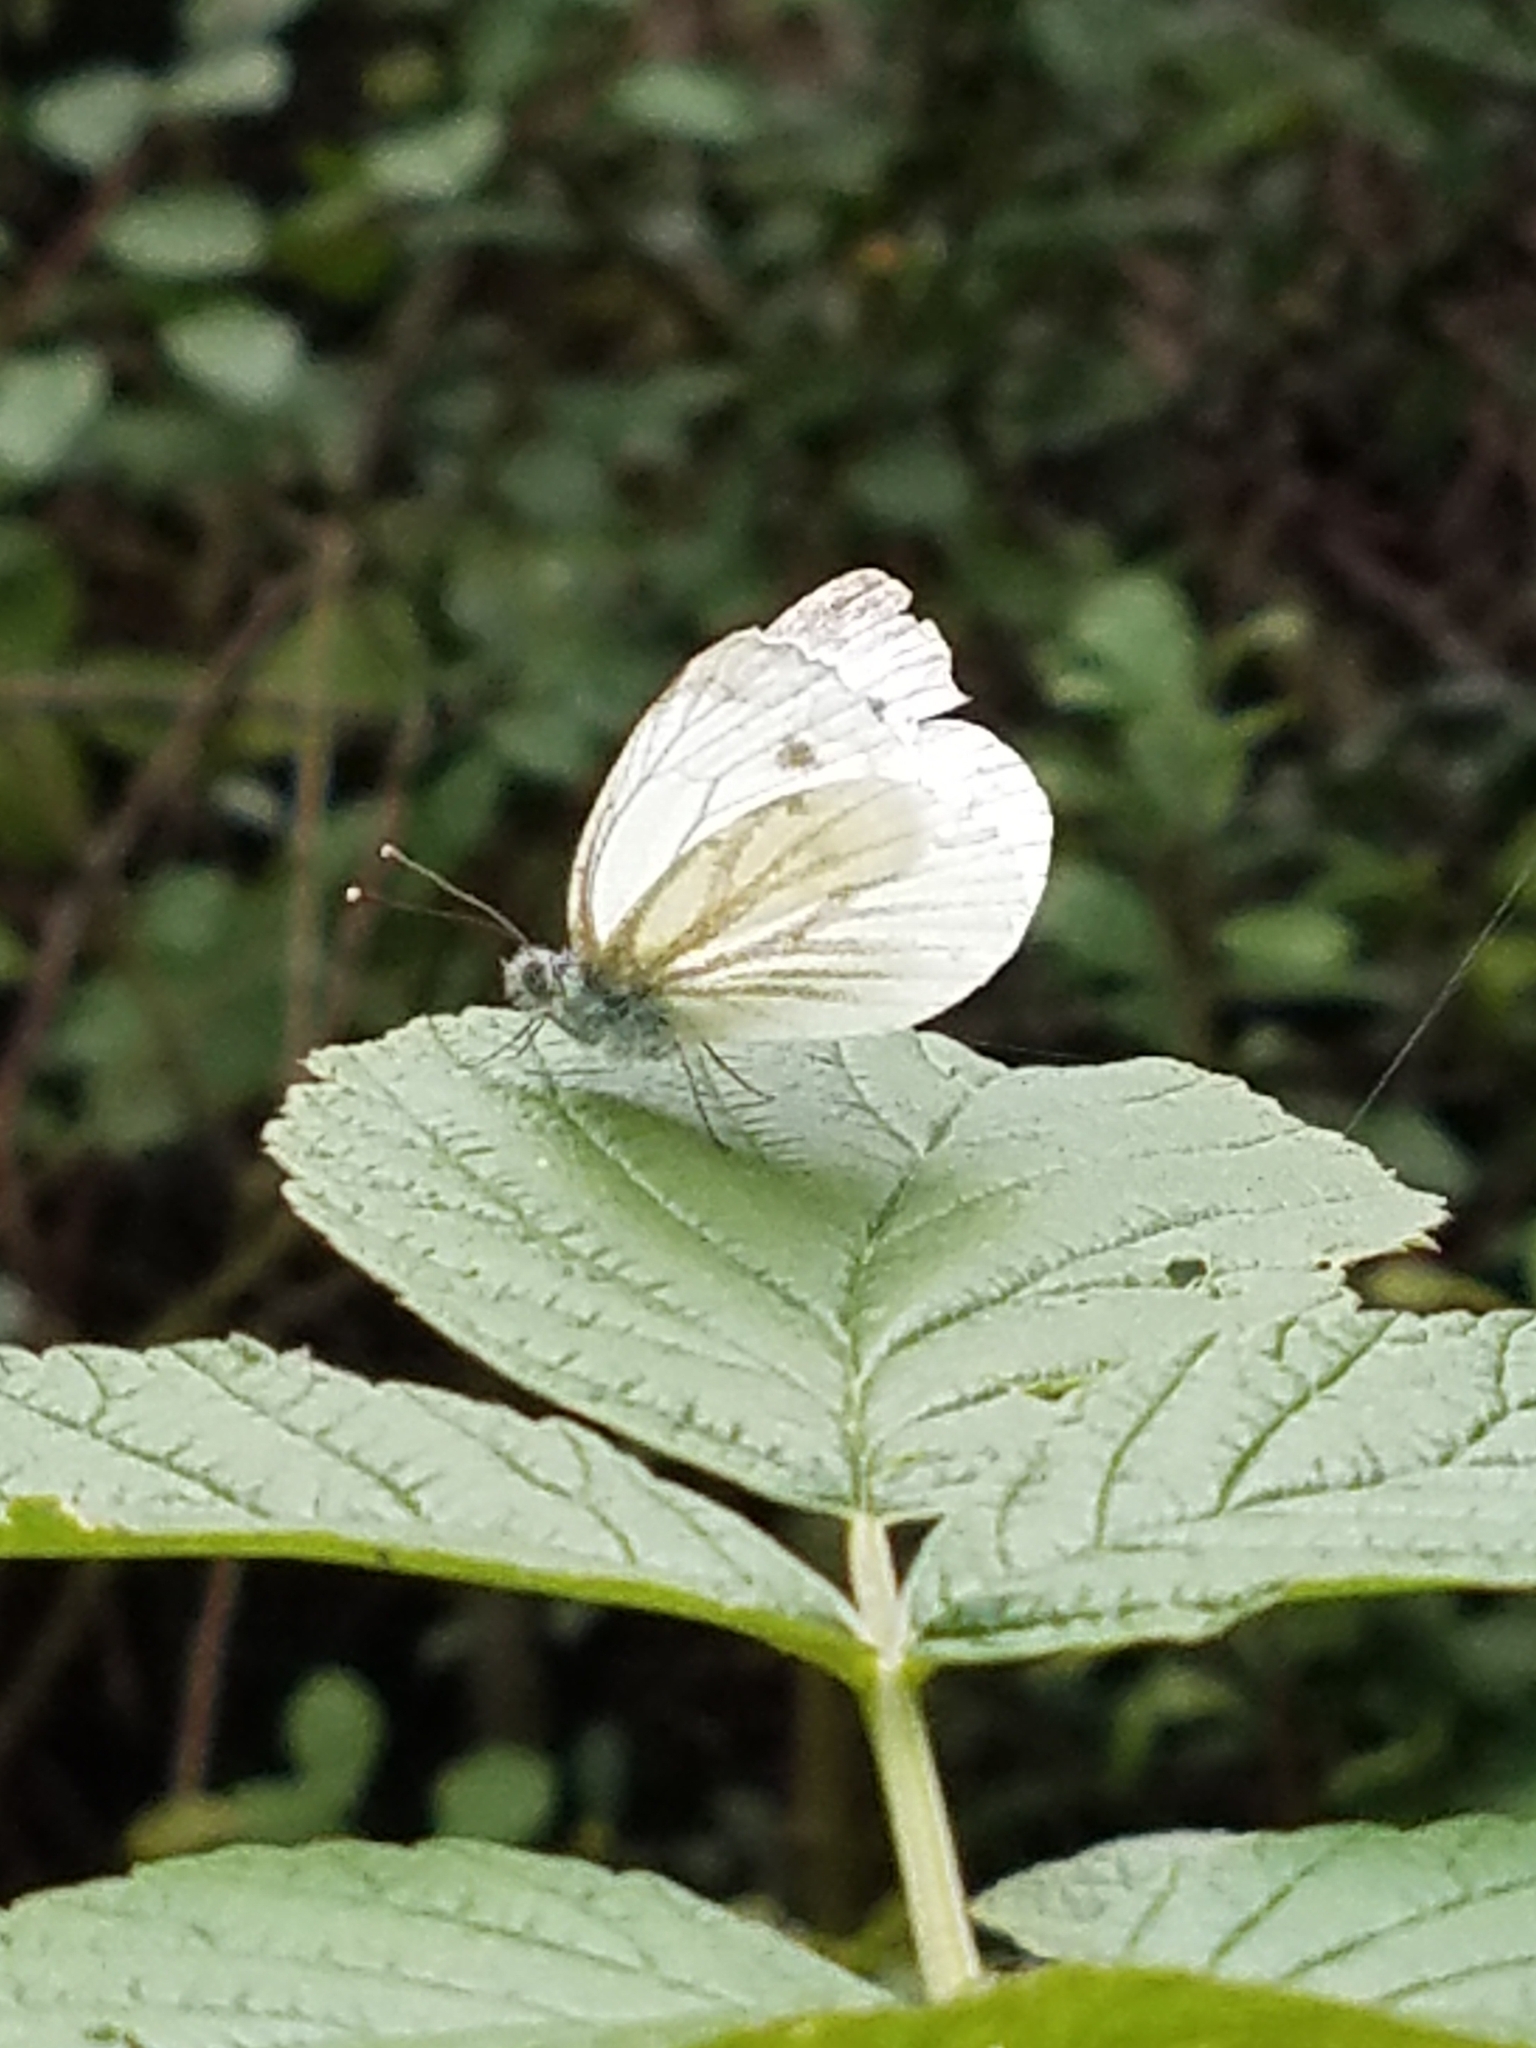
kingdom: Animalia
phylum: Arthropoda
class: Insecta
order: Lepidoptera
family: Pieridae
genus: Pieris
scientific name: Pieris napi
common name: Green-veined white
